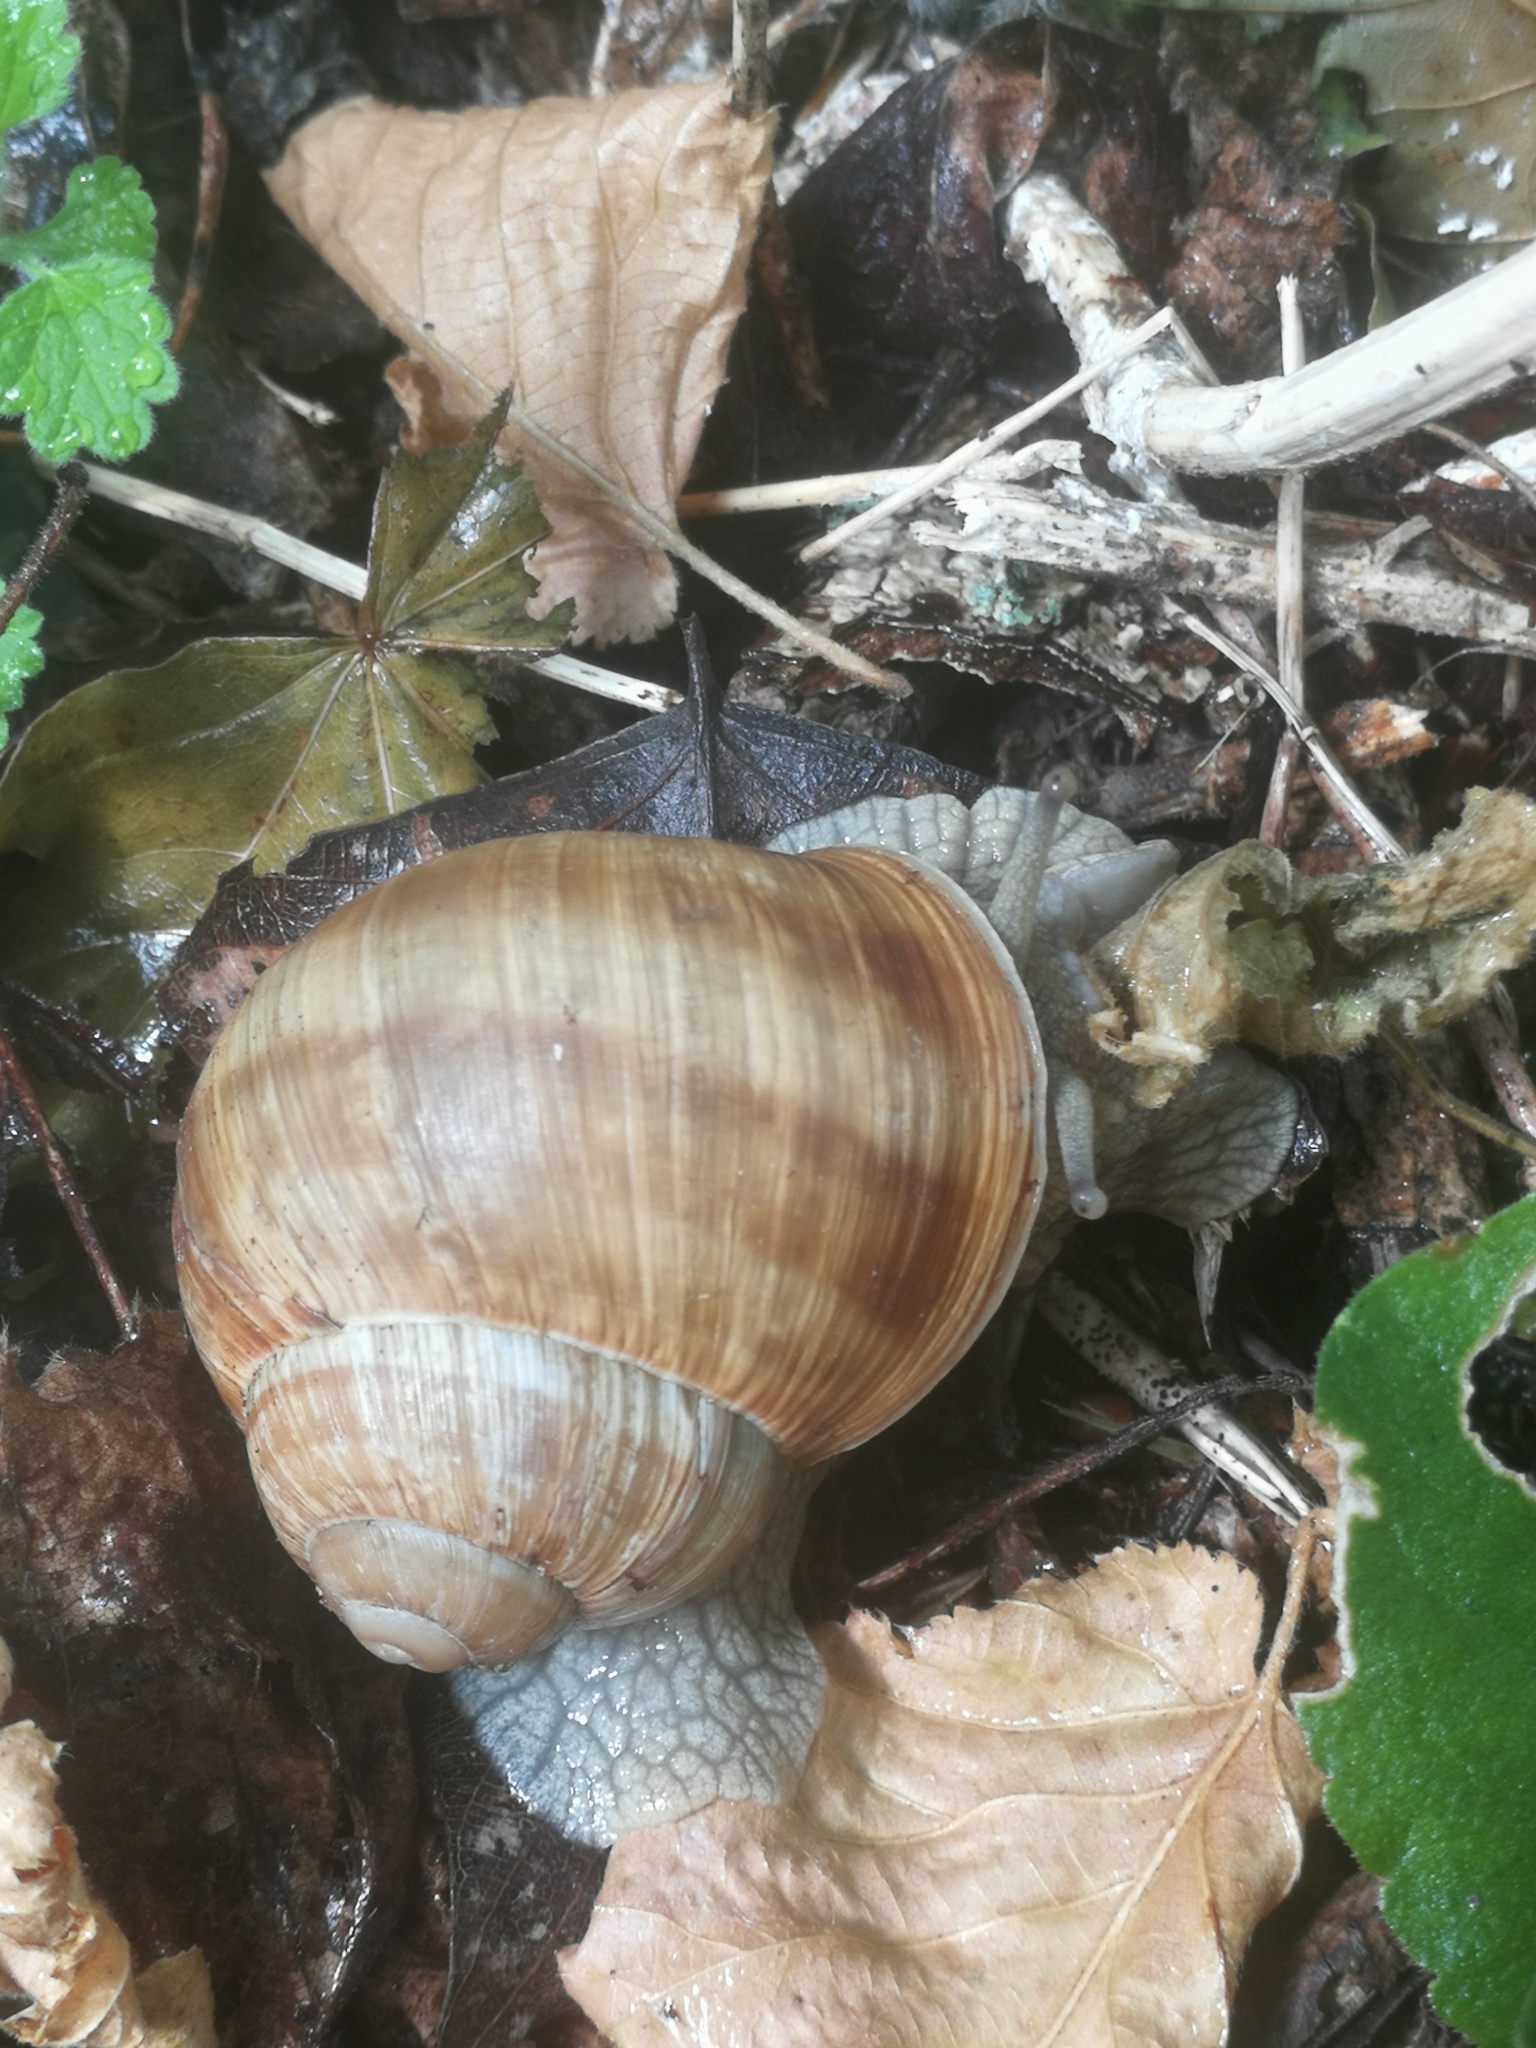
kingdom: Animalia
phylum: Mollusca
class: Gastropoda
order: Stylommatophora
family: Helicidae
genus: Helix
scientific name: Helix pomatia
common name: Roman snail
